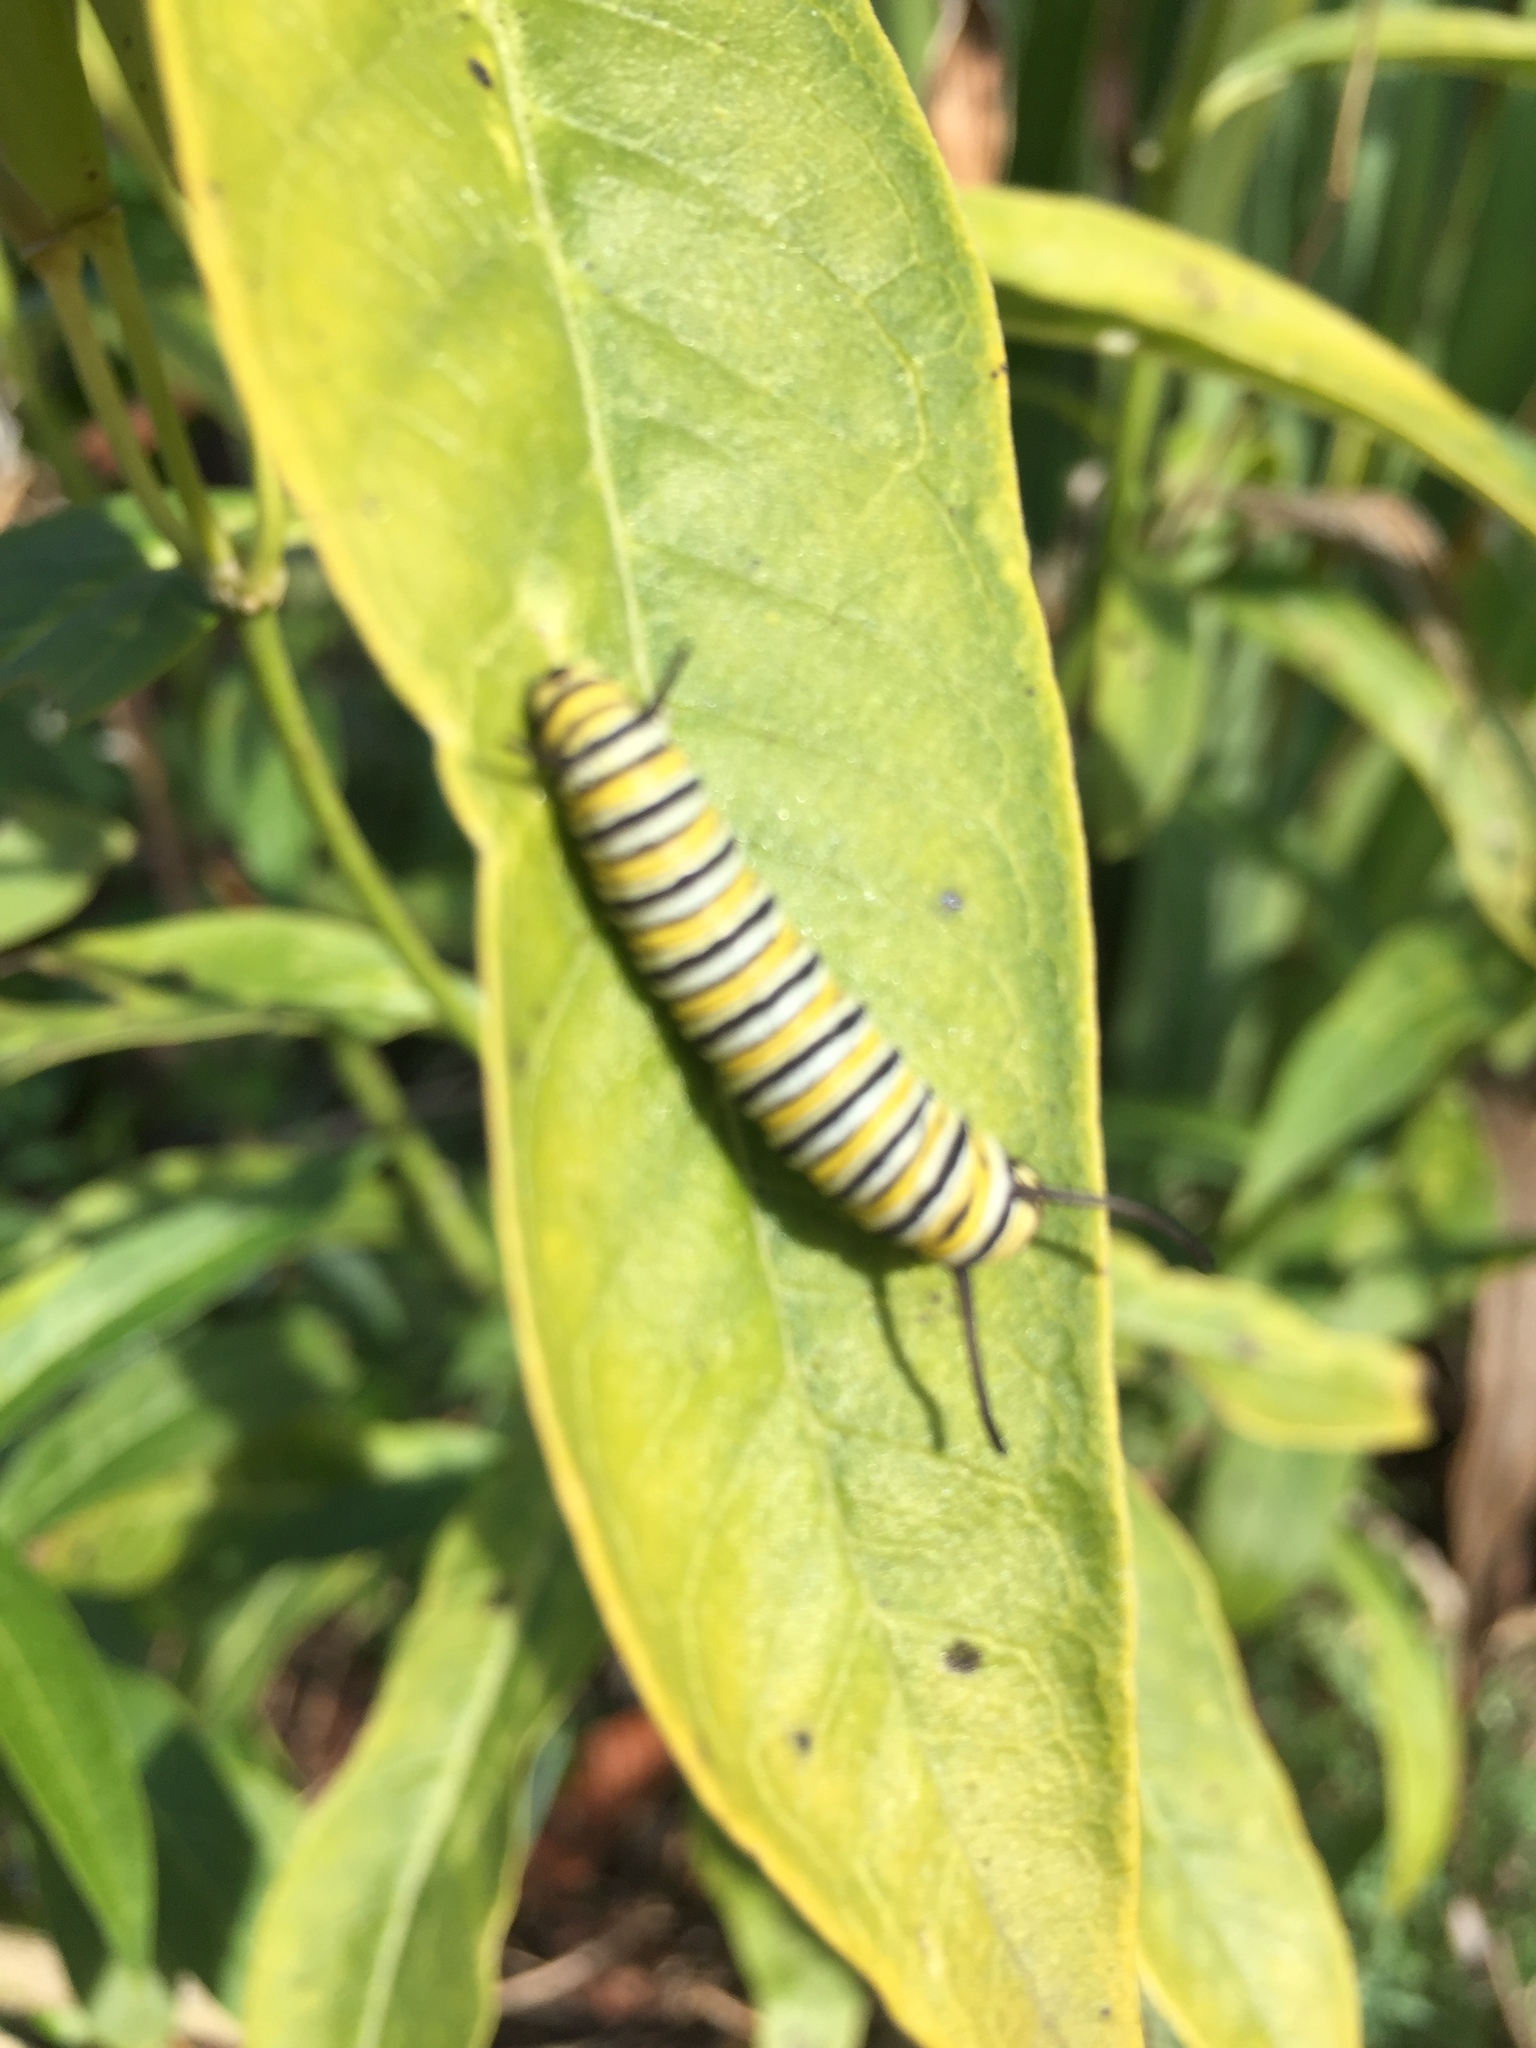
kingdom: Animalia
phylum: Arthropoda
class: Insecta
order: Lepidoptera
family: Nymphalidae
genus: Danaus
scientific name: Danaus plexippus
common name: Monarch
